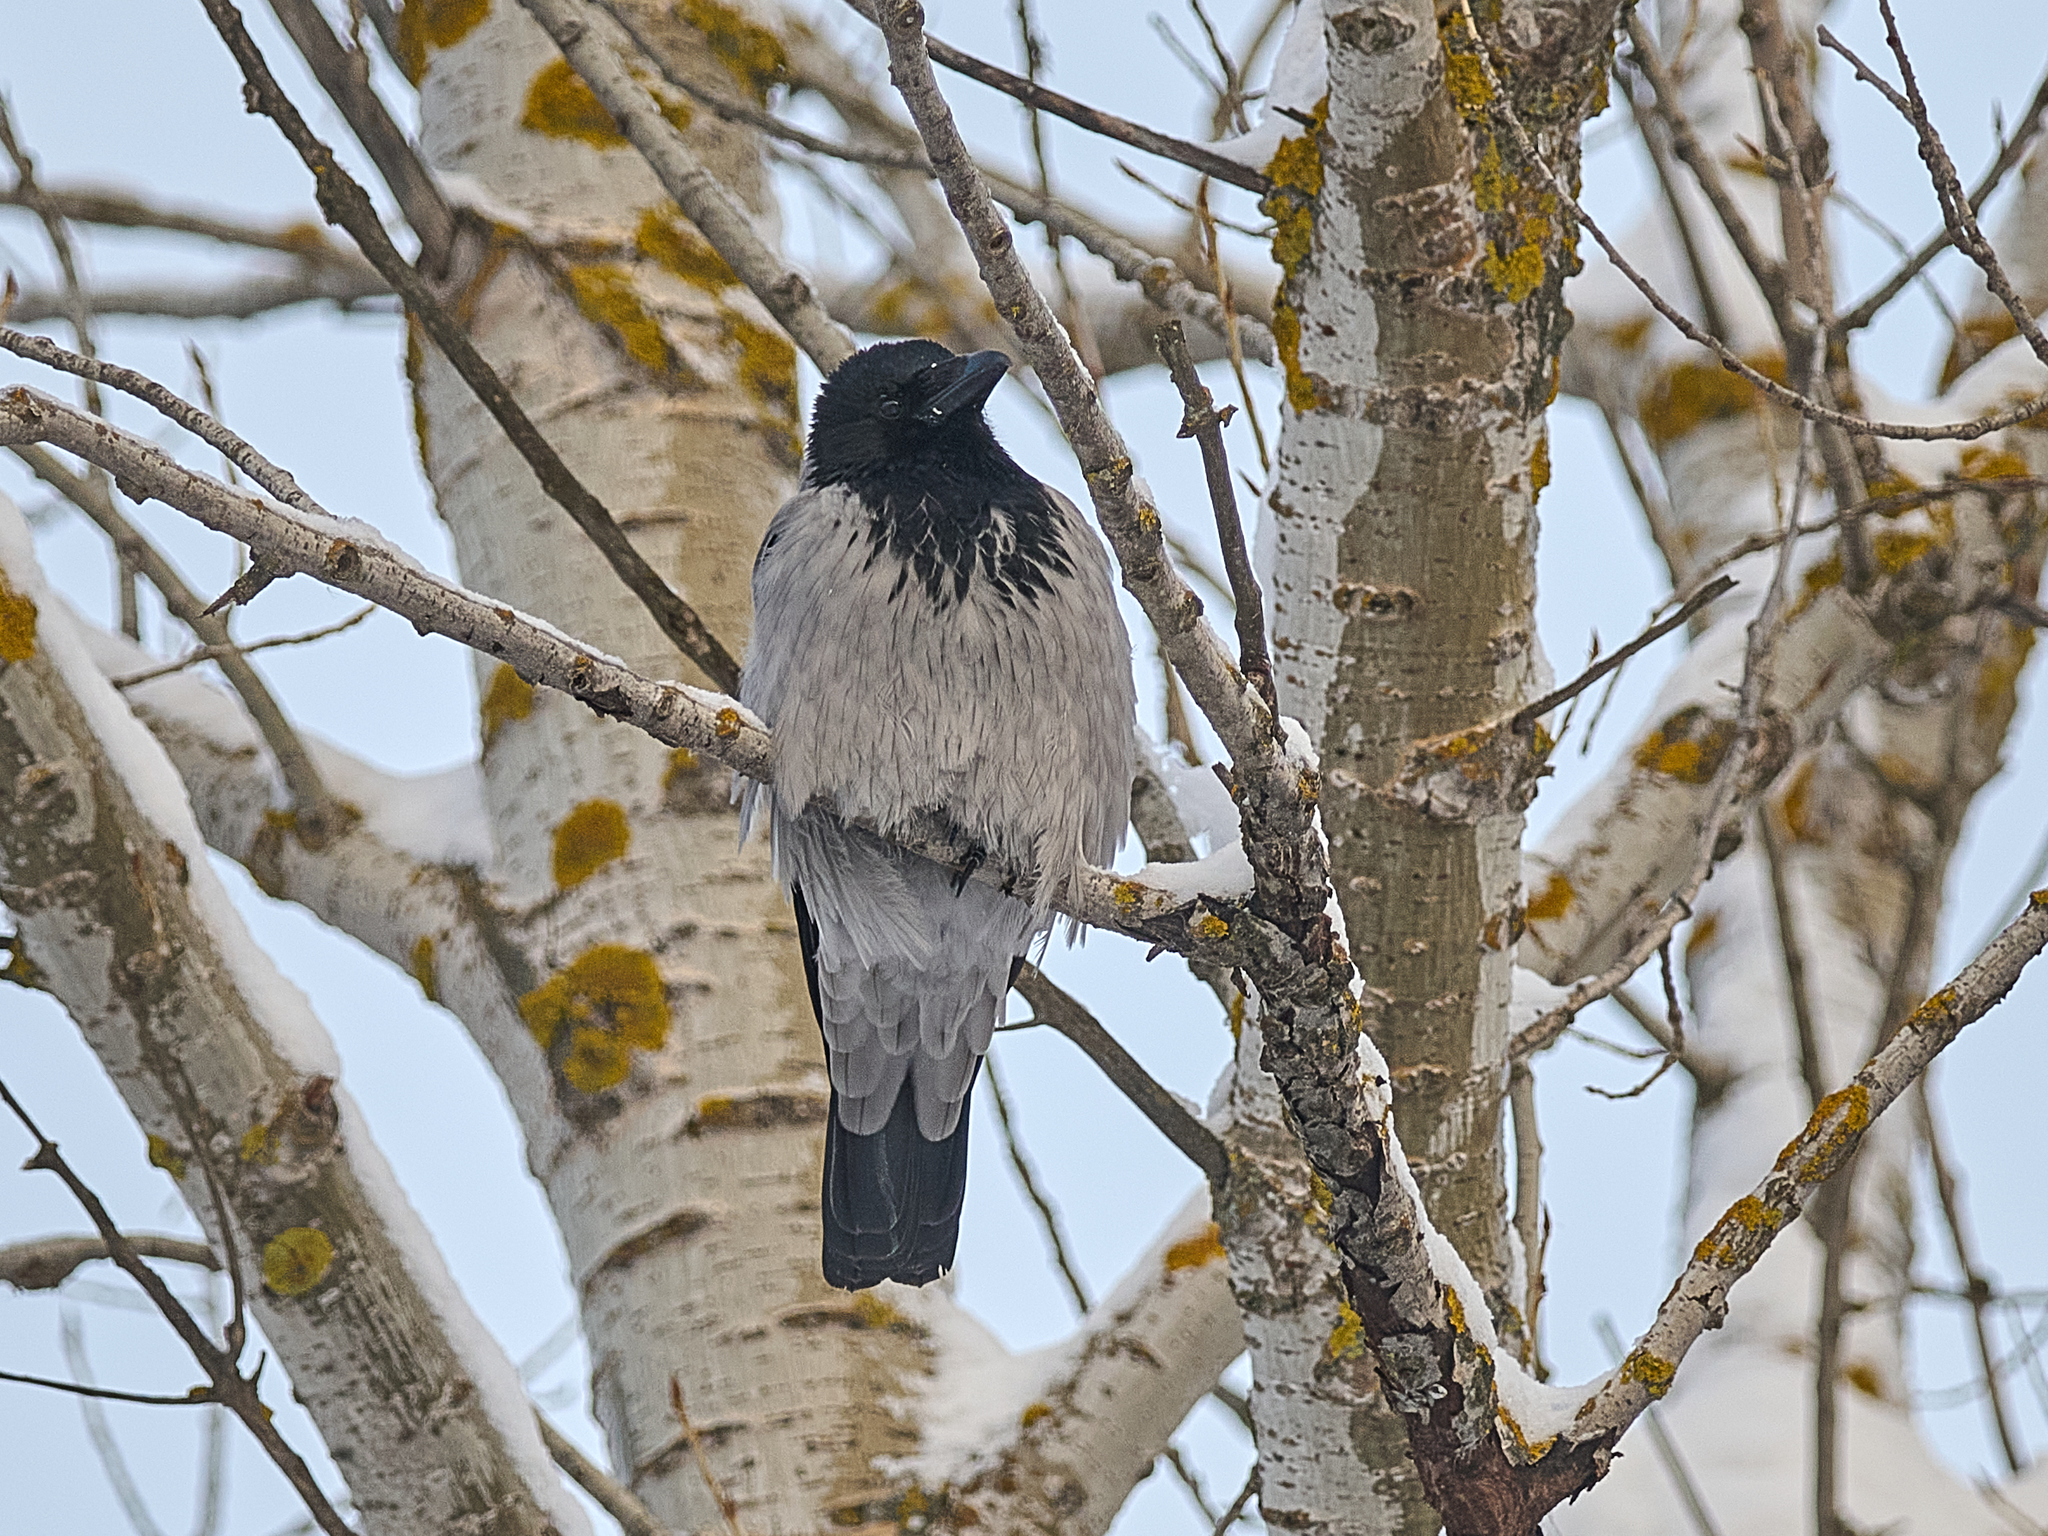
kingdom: Animalia
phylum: Chordata
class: Aves
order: Passeriformes
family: Corvidae
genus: Corvus
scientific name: Corvus cornix
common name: Hooded crow
